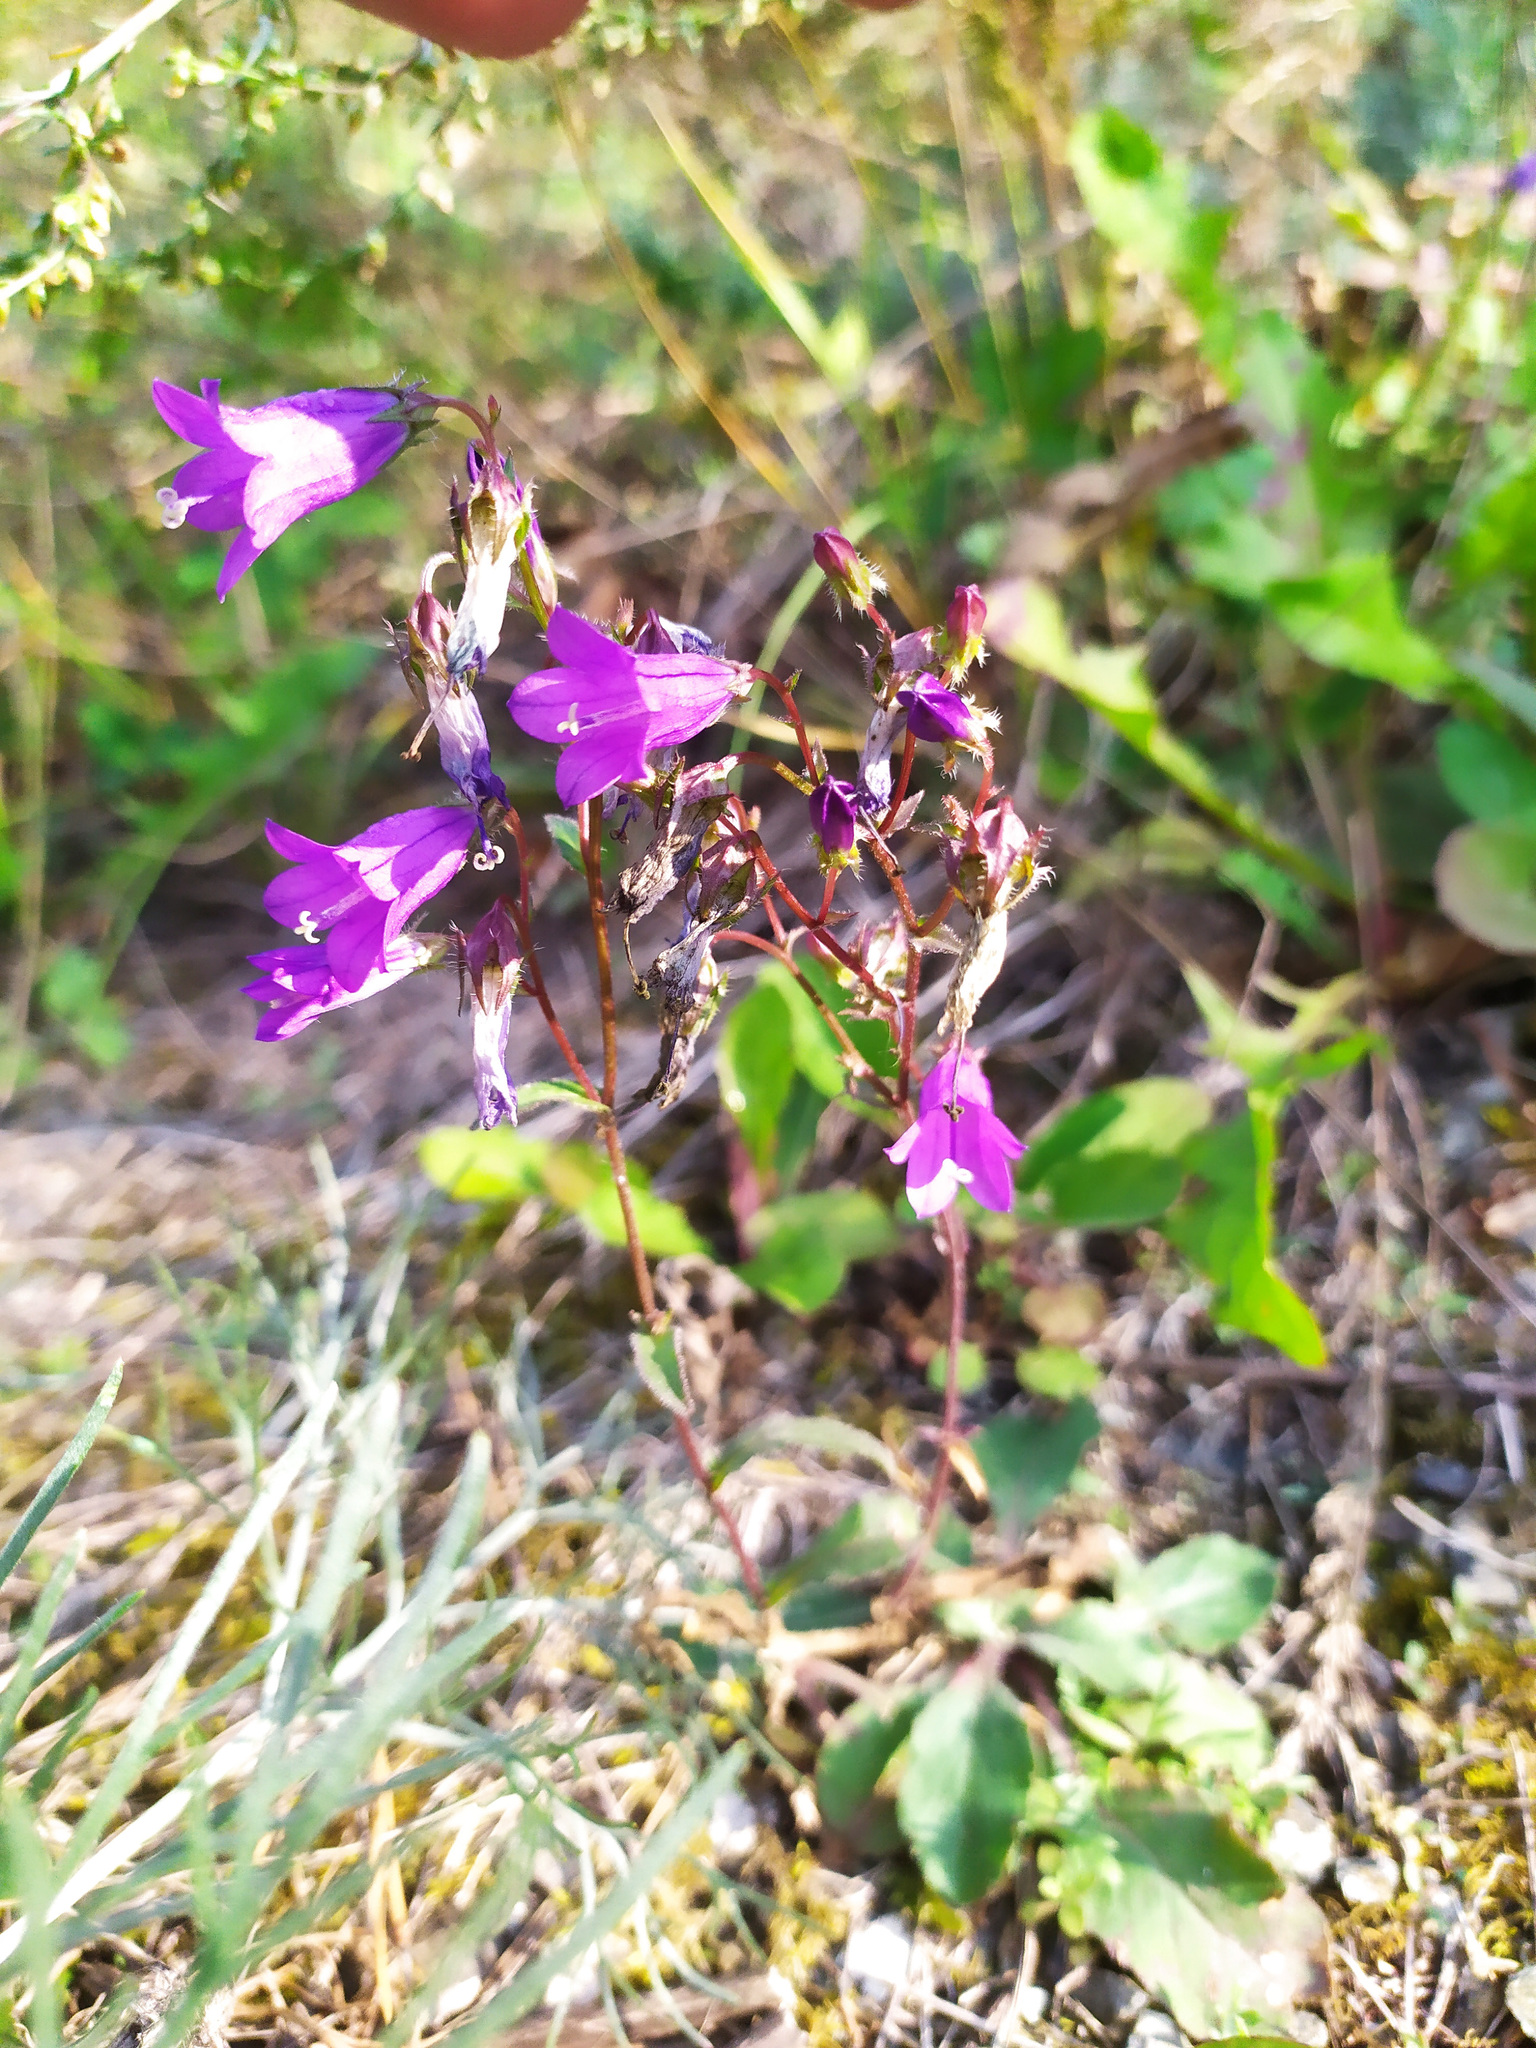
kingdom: Plantae
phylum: Tracheophyta
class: Magnoliopsida
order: Asterales
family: Campanulaceae
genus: Campanula
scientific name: Campanula sibirica
